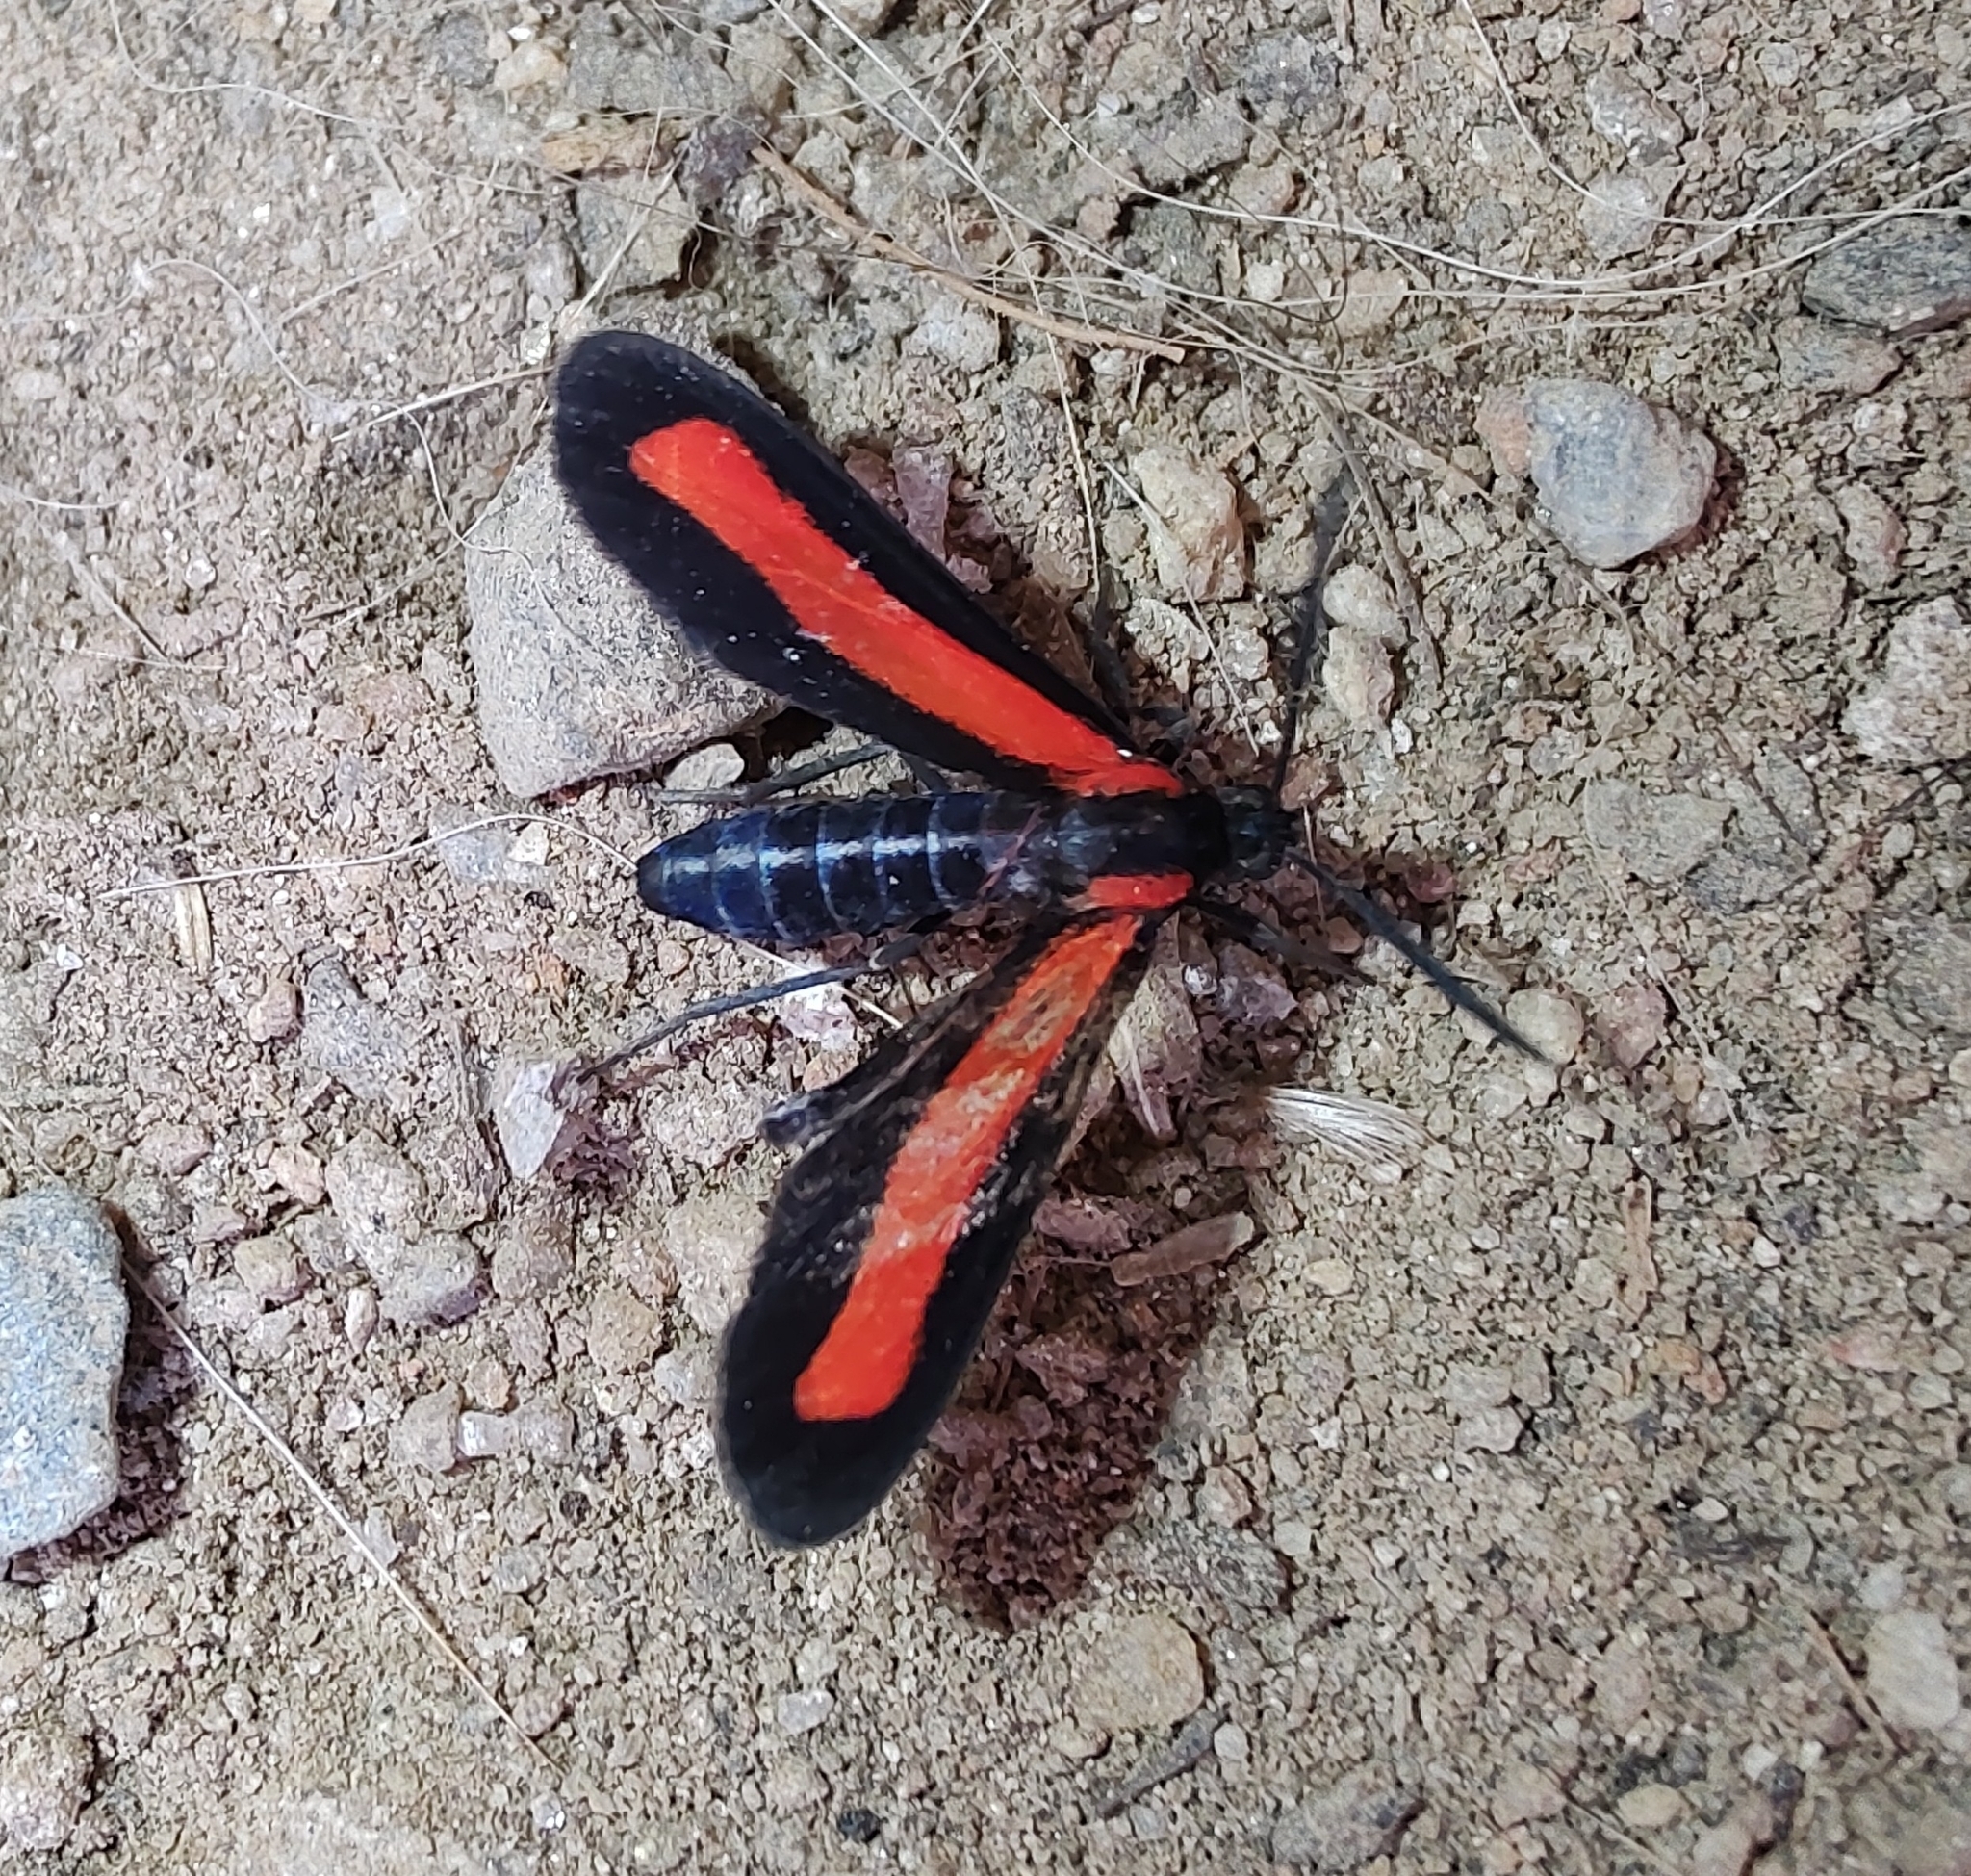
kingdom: Animalia
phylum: Arthropoda
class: Insecta
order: Lepidoptera
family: Erebidae
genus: Tipulodes
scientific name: Tipulodes ima
